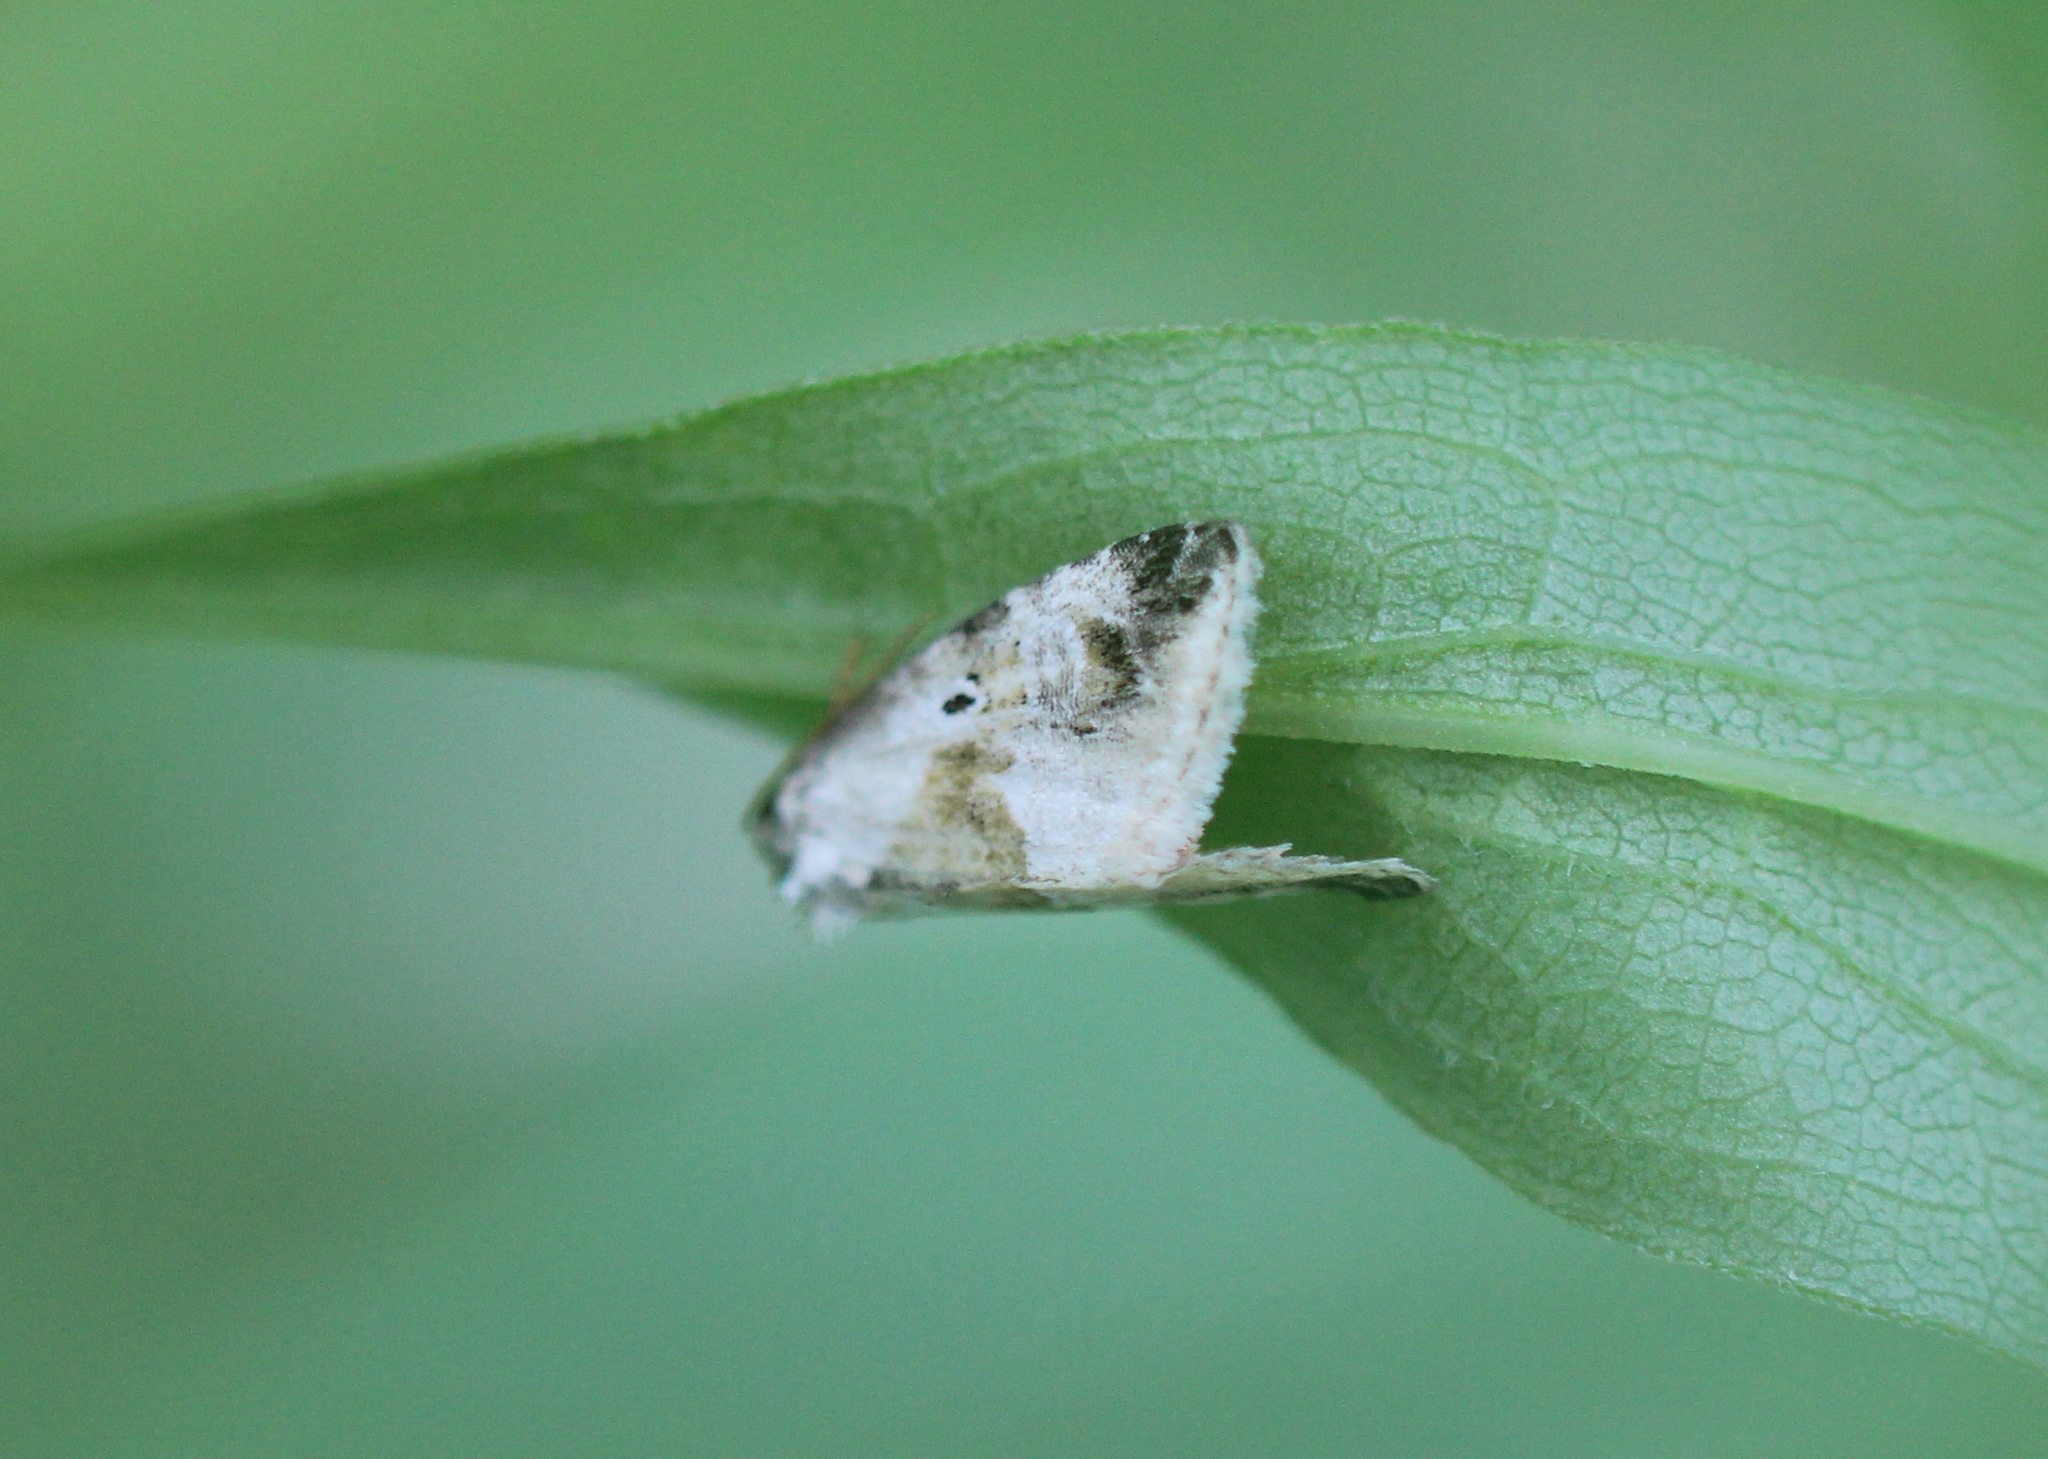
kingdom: Animalia
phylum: Arthropoda
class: Insecta
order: Lepidoptera
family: Noctuidae
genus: Maliattha
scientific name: Maliattha synochitis
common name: Black-dotted glyph
